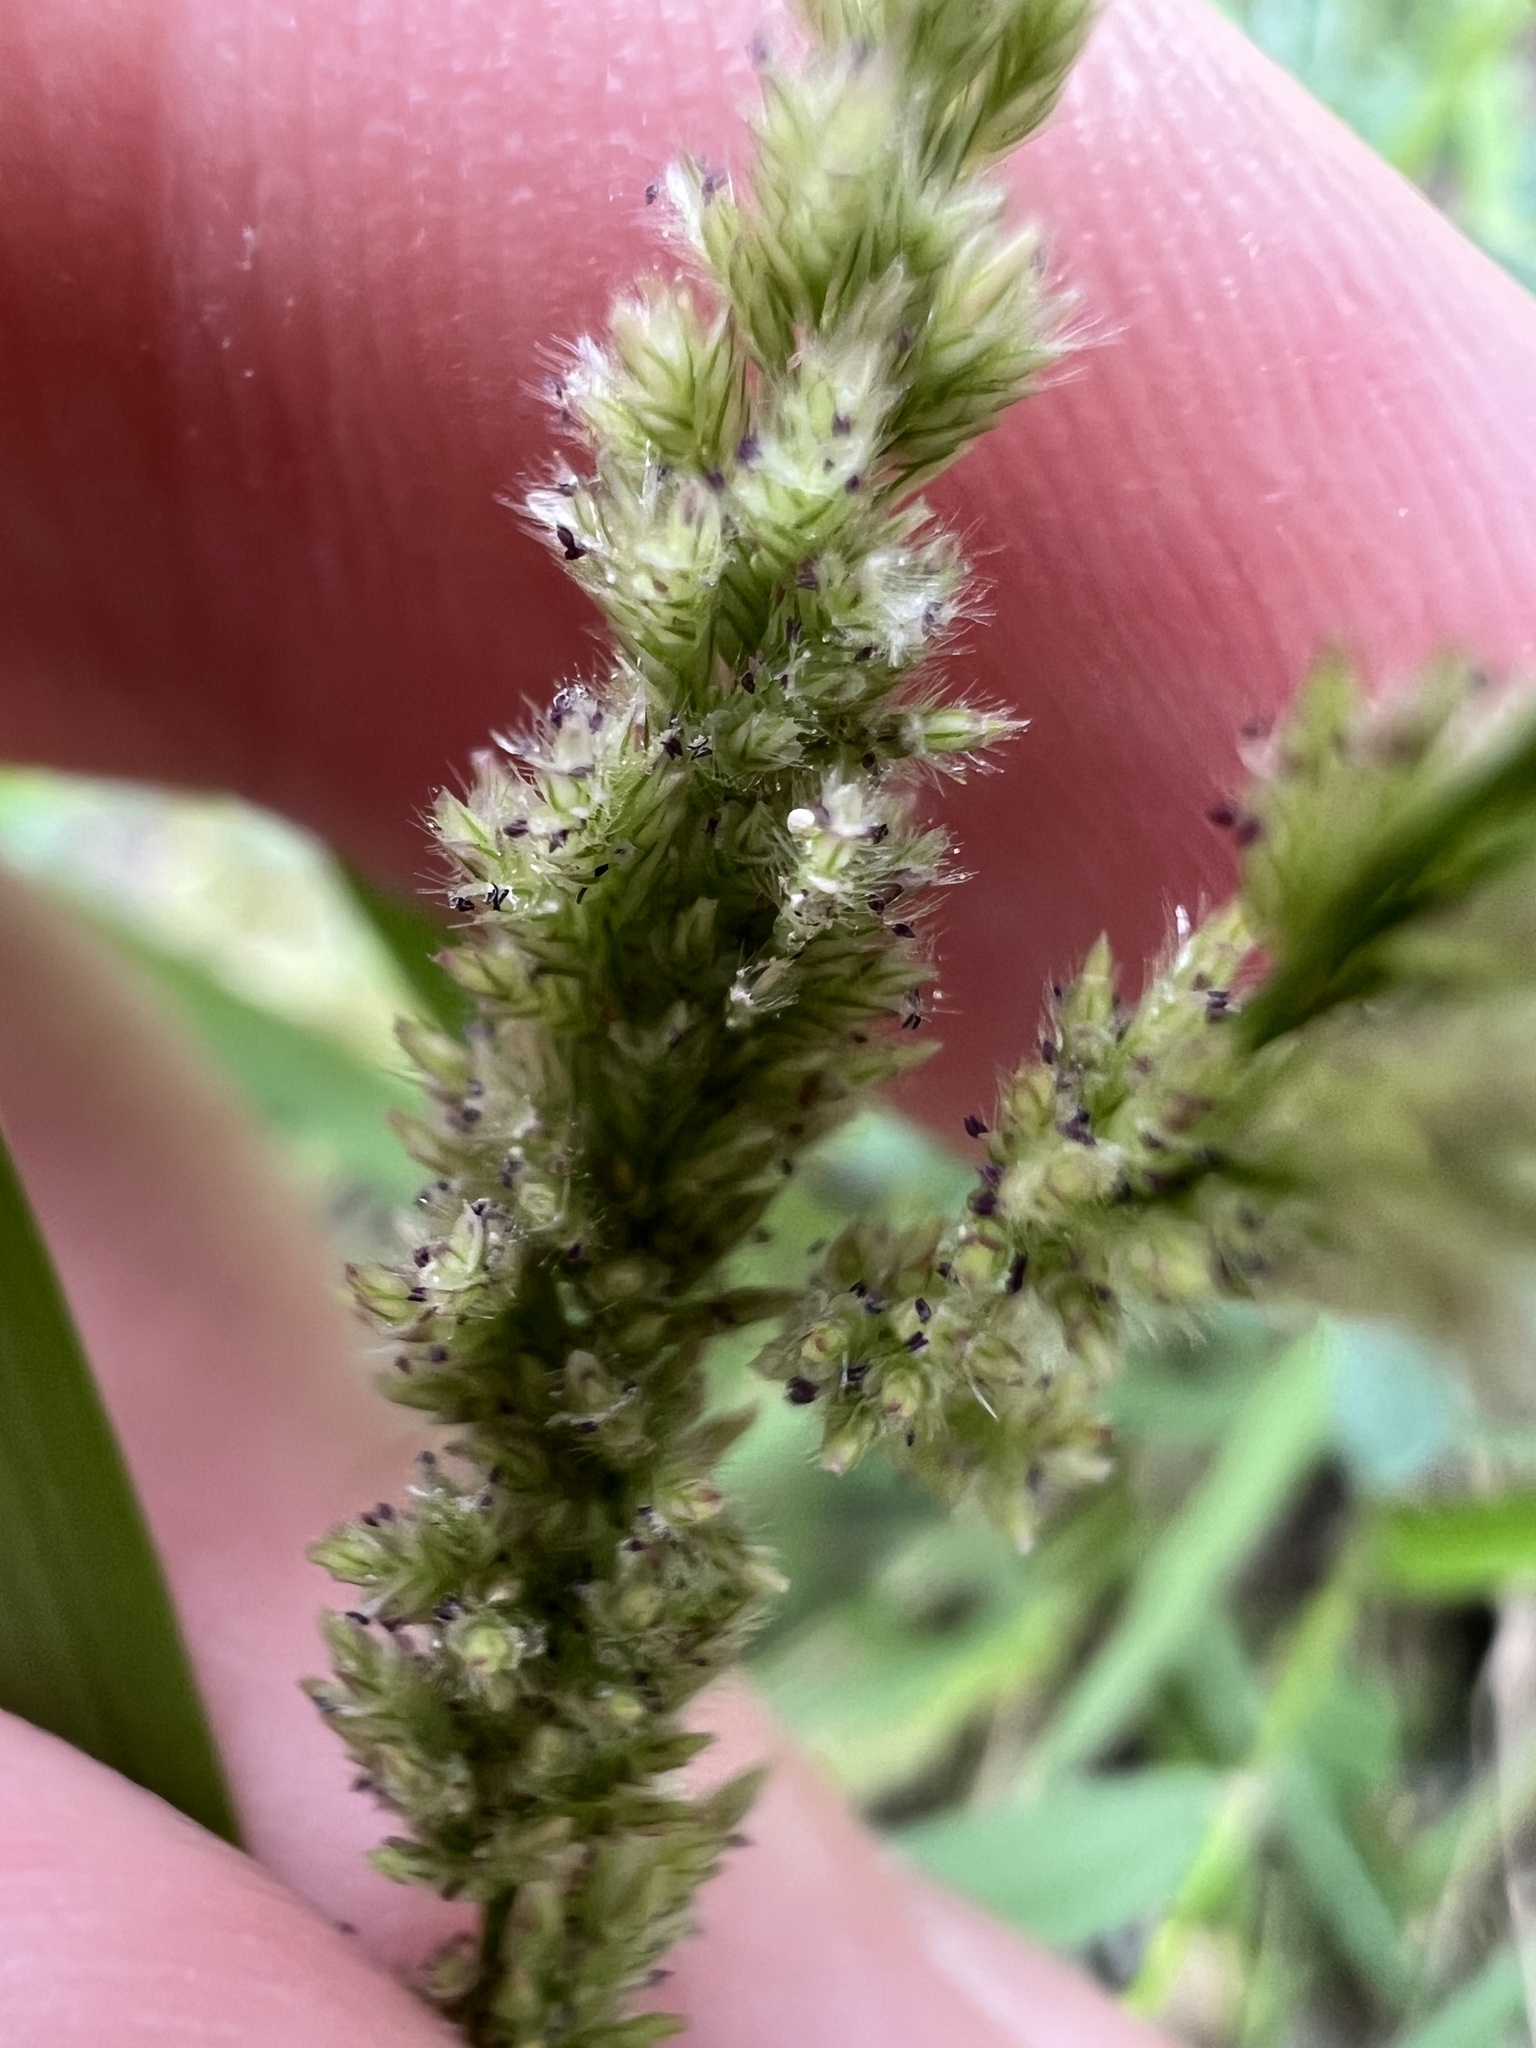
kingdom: Plantae
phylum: Tracheophyta
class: Liliopsida
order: Poales
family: Poaceae
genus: Eragrostis
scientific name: Eragrostis ciliaris
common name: Gophertail lovegrass
